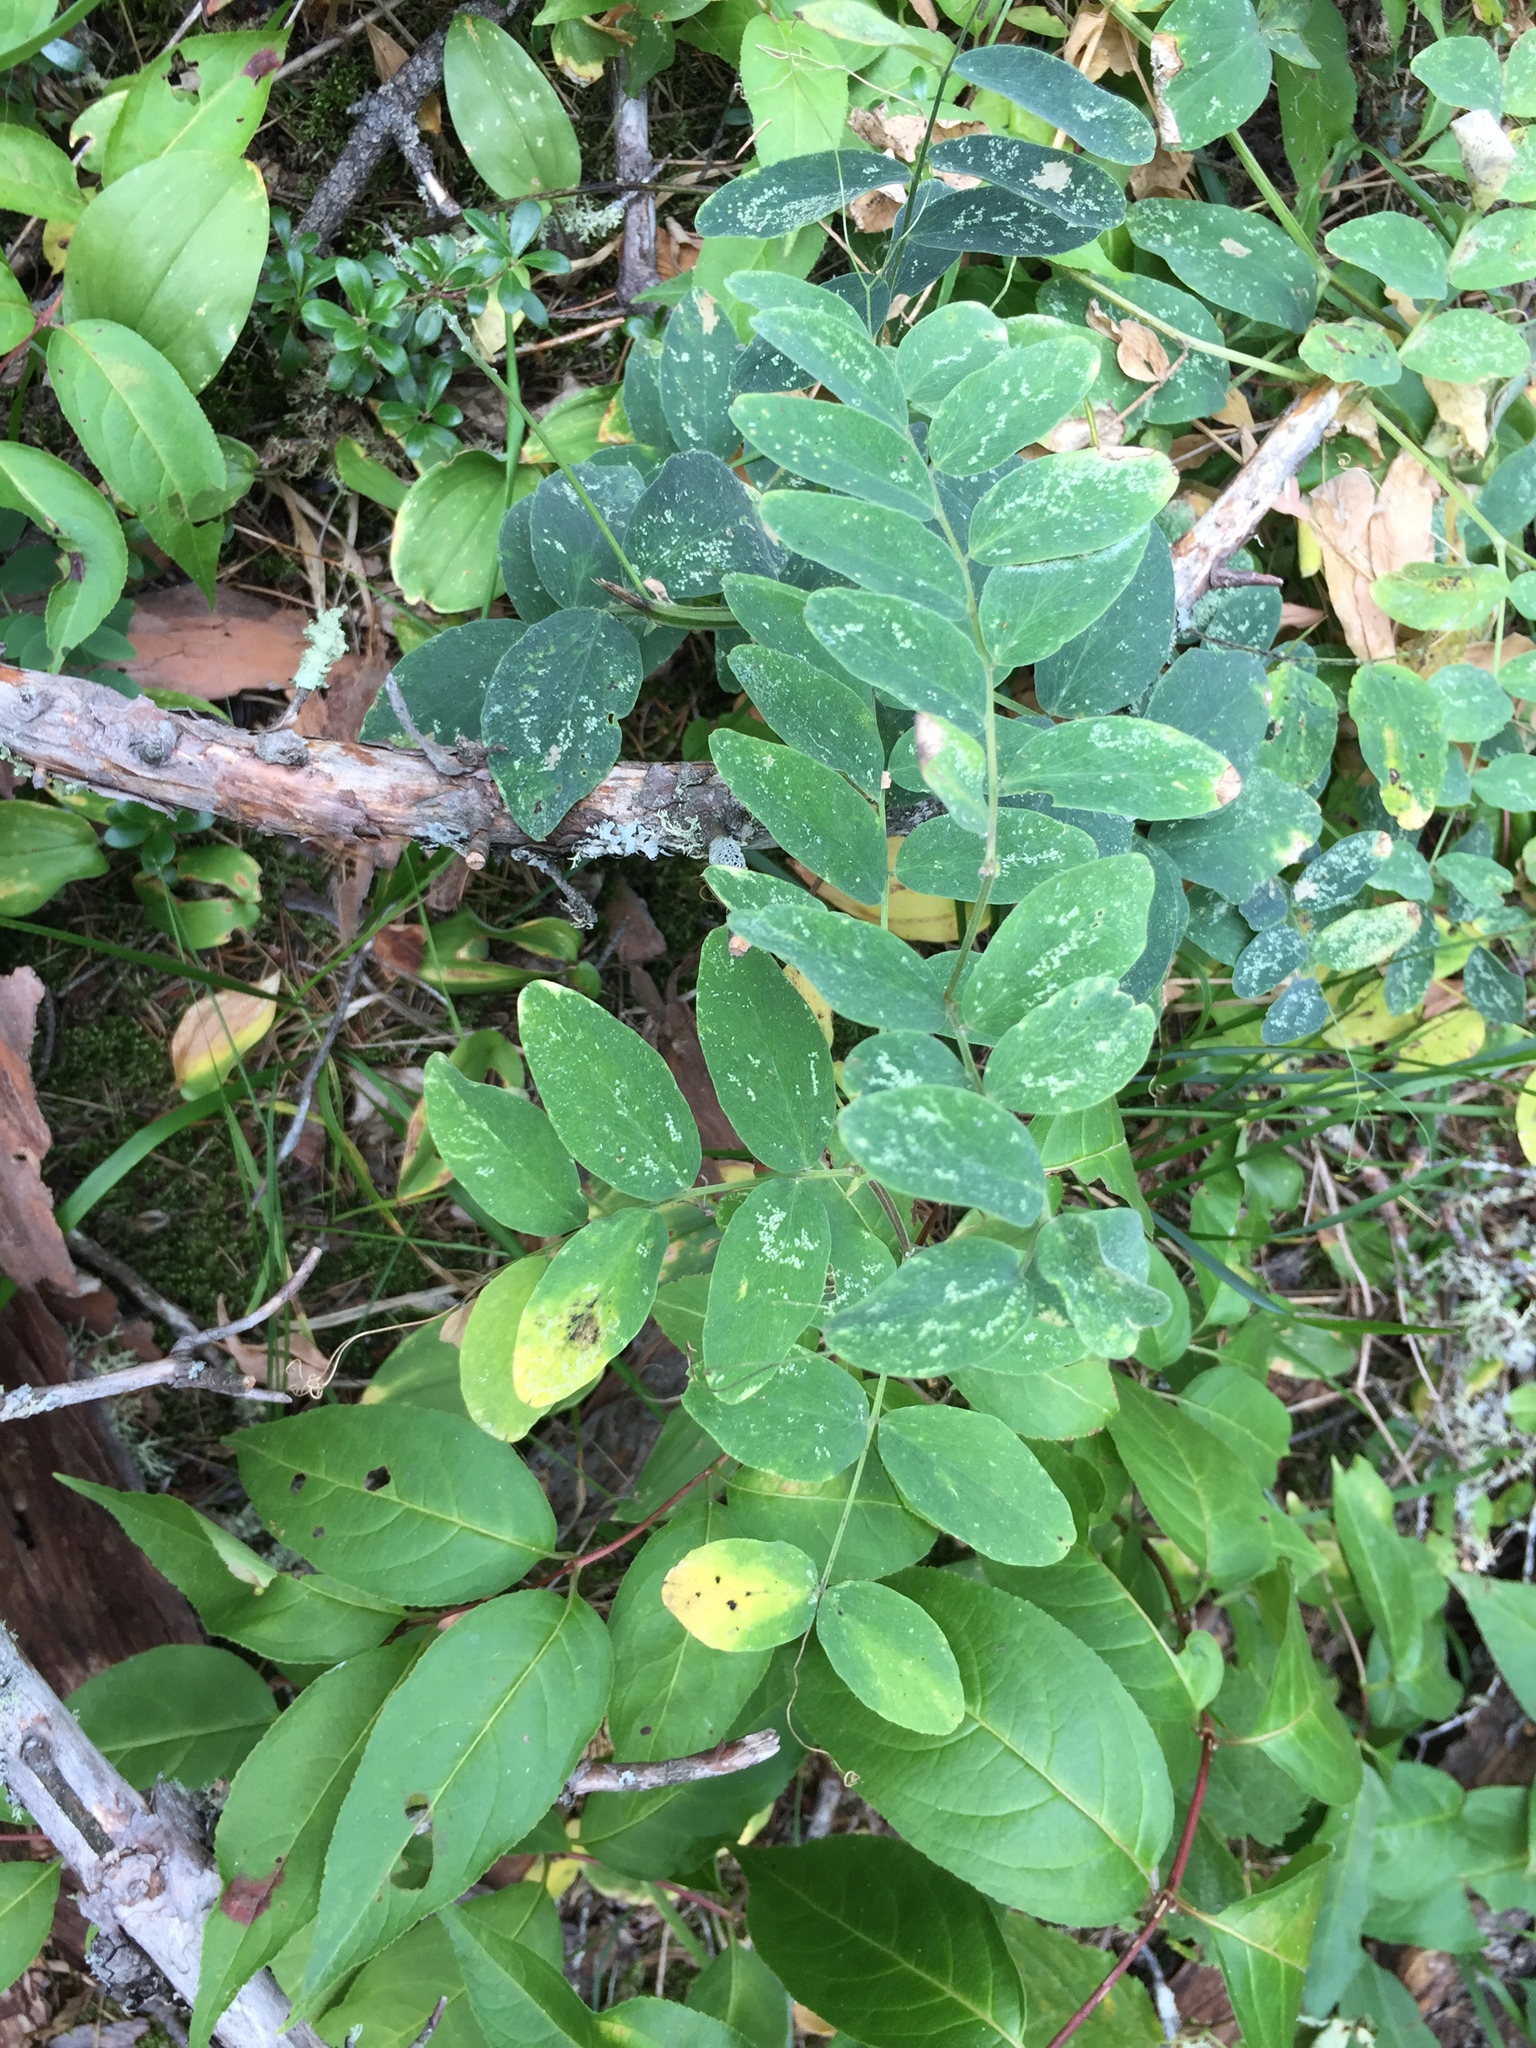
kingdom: Plantae
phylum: Tracheophyta
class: Magnoliopsida
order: Fabales
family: Fabaceae
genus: Lathyrus
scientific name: Lathyrus venosus
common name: Forest-pea
